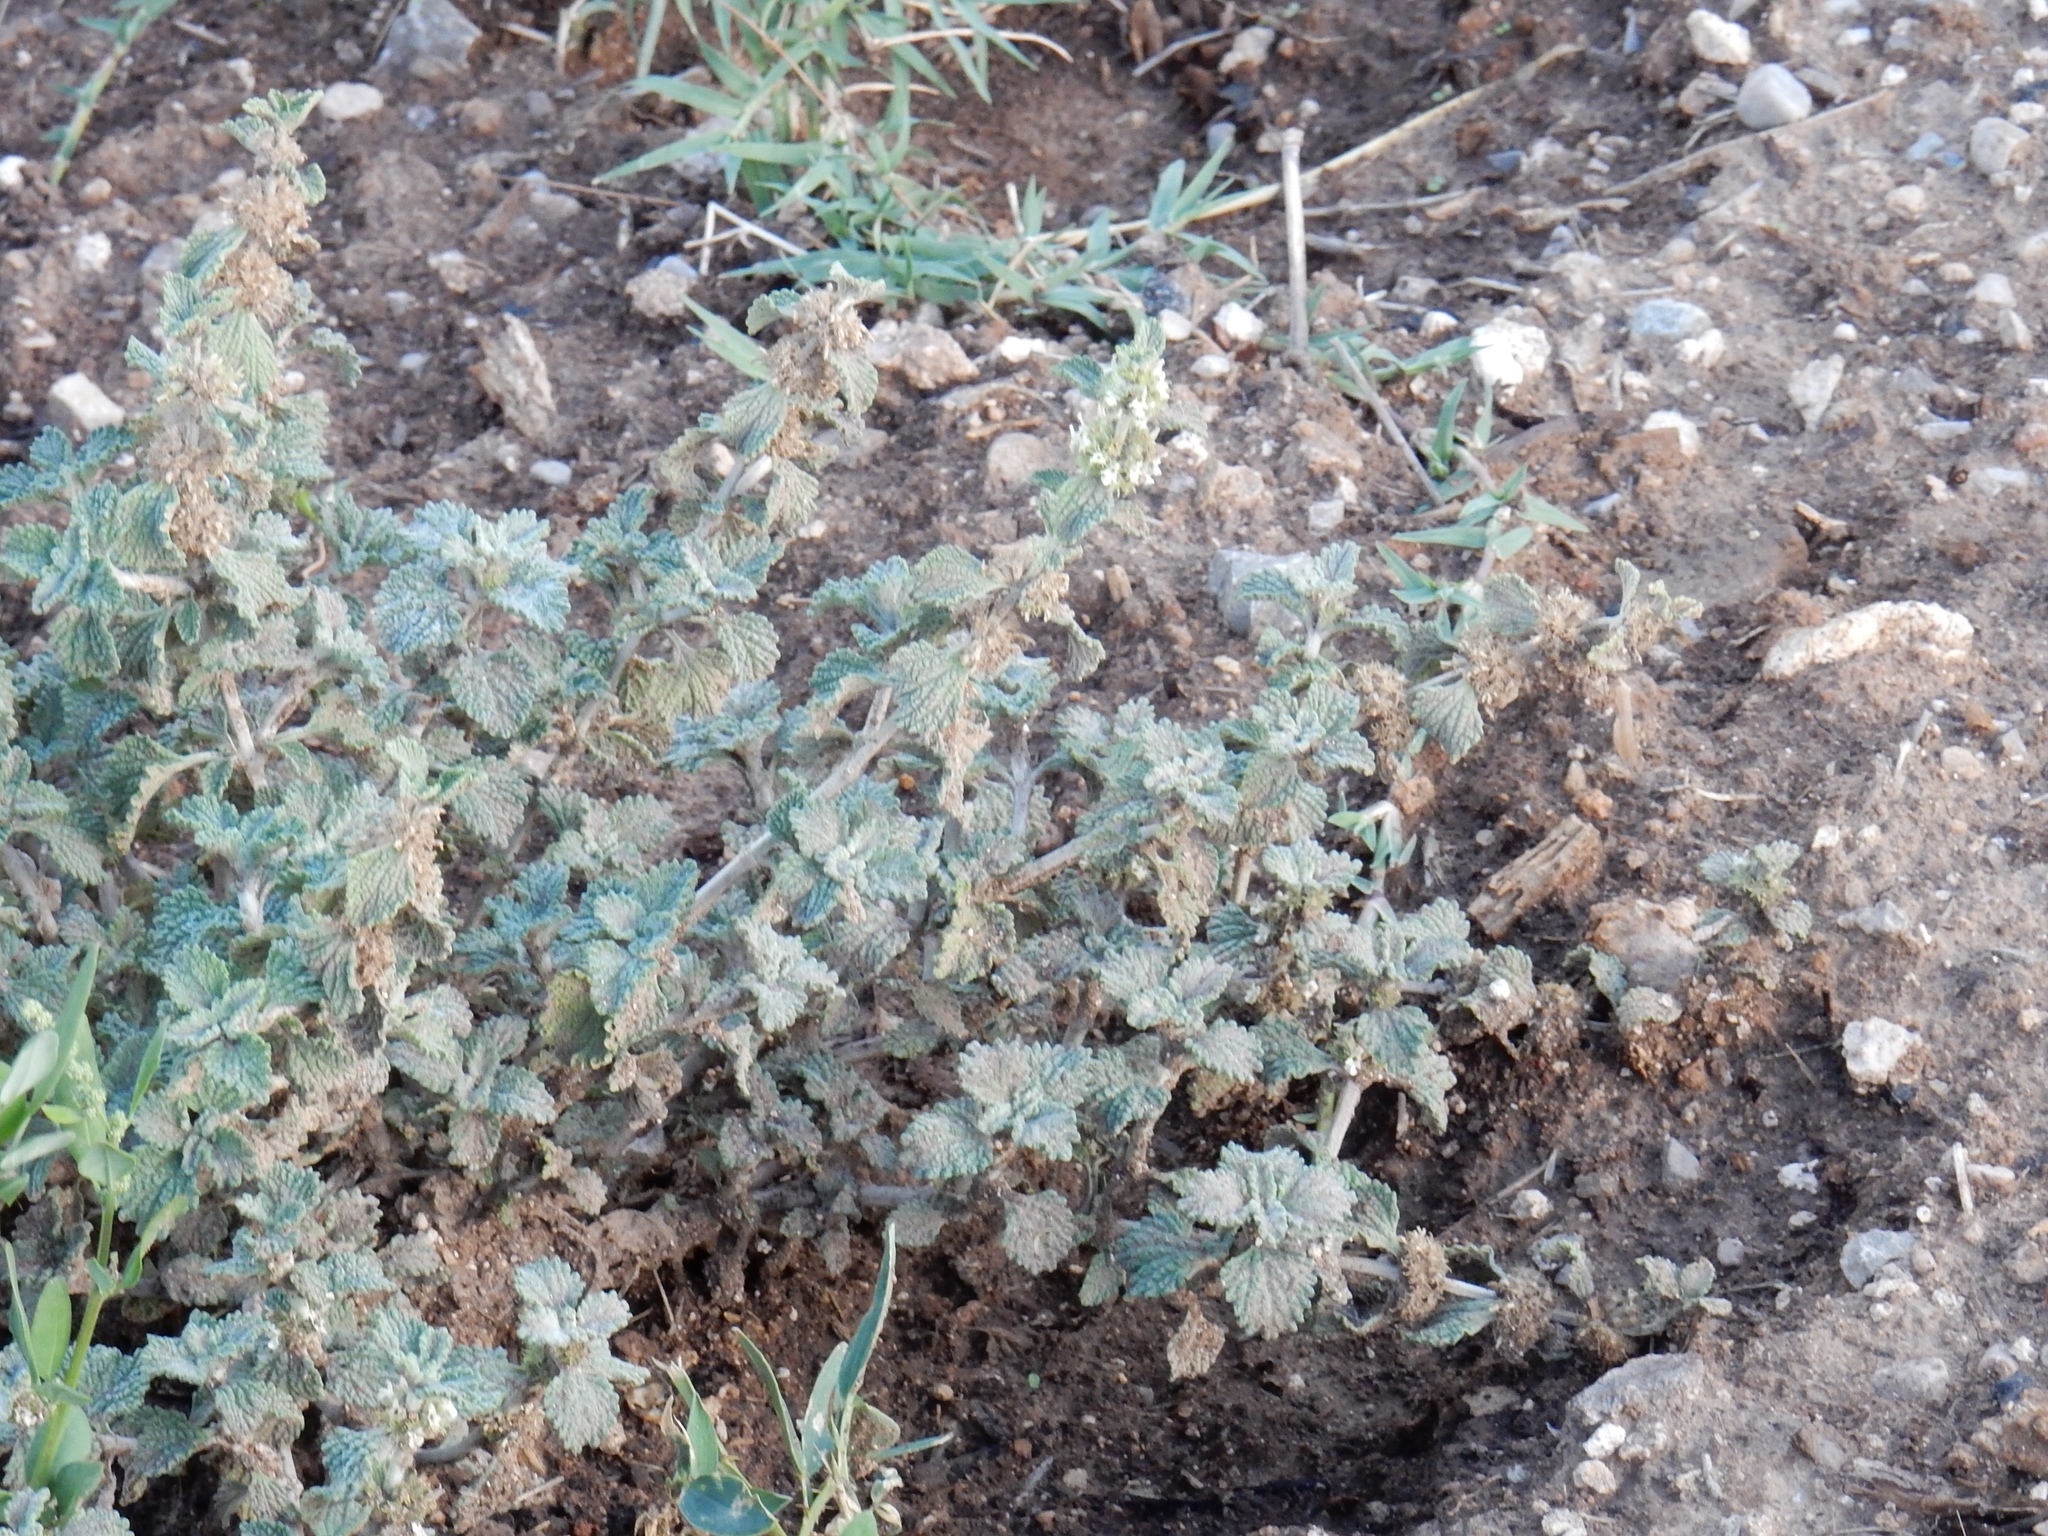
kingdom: Plantae
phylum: Tracheophyta
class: Magnoliopsida
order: Lamiales
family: Lamiaceae
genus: Marrubium
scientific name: Marrubium vulgare
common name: Horehound
